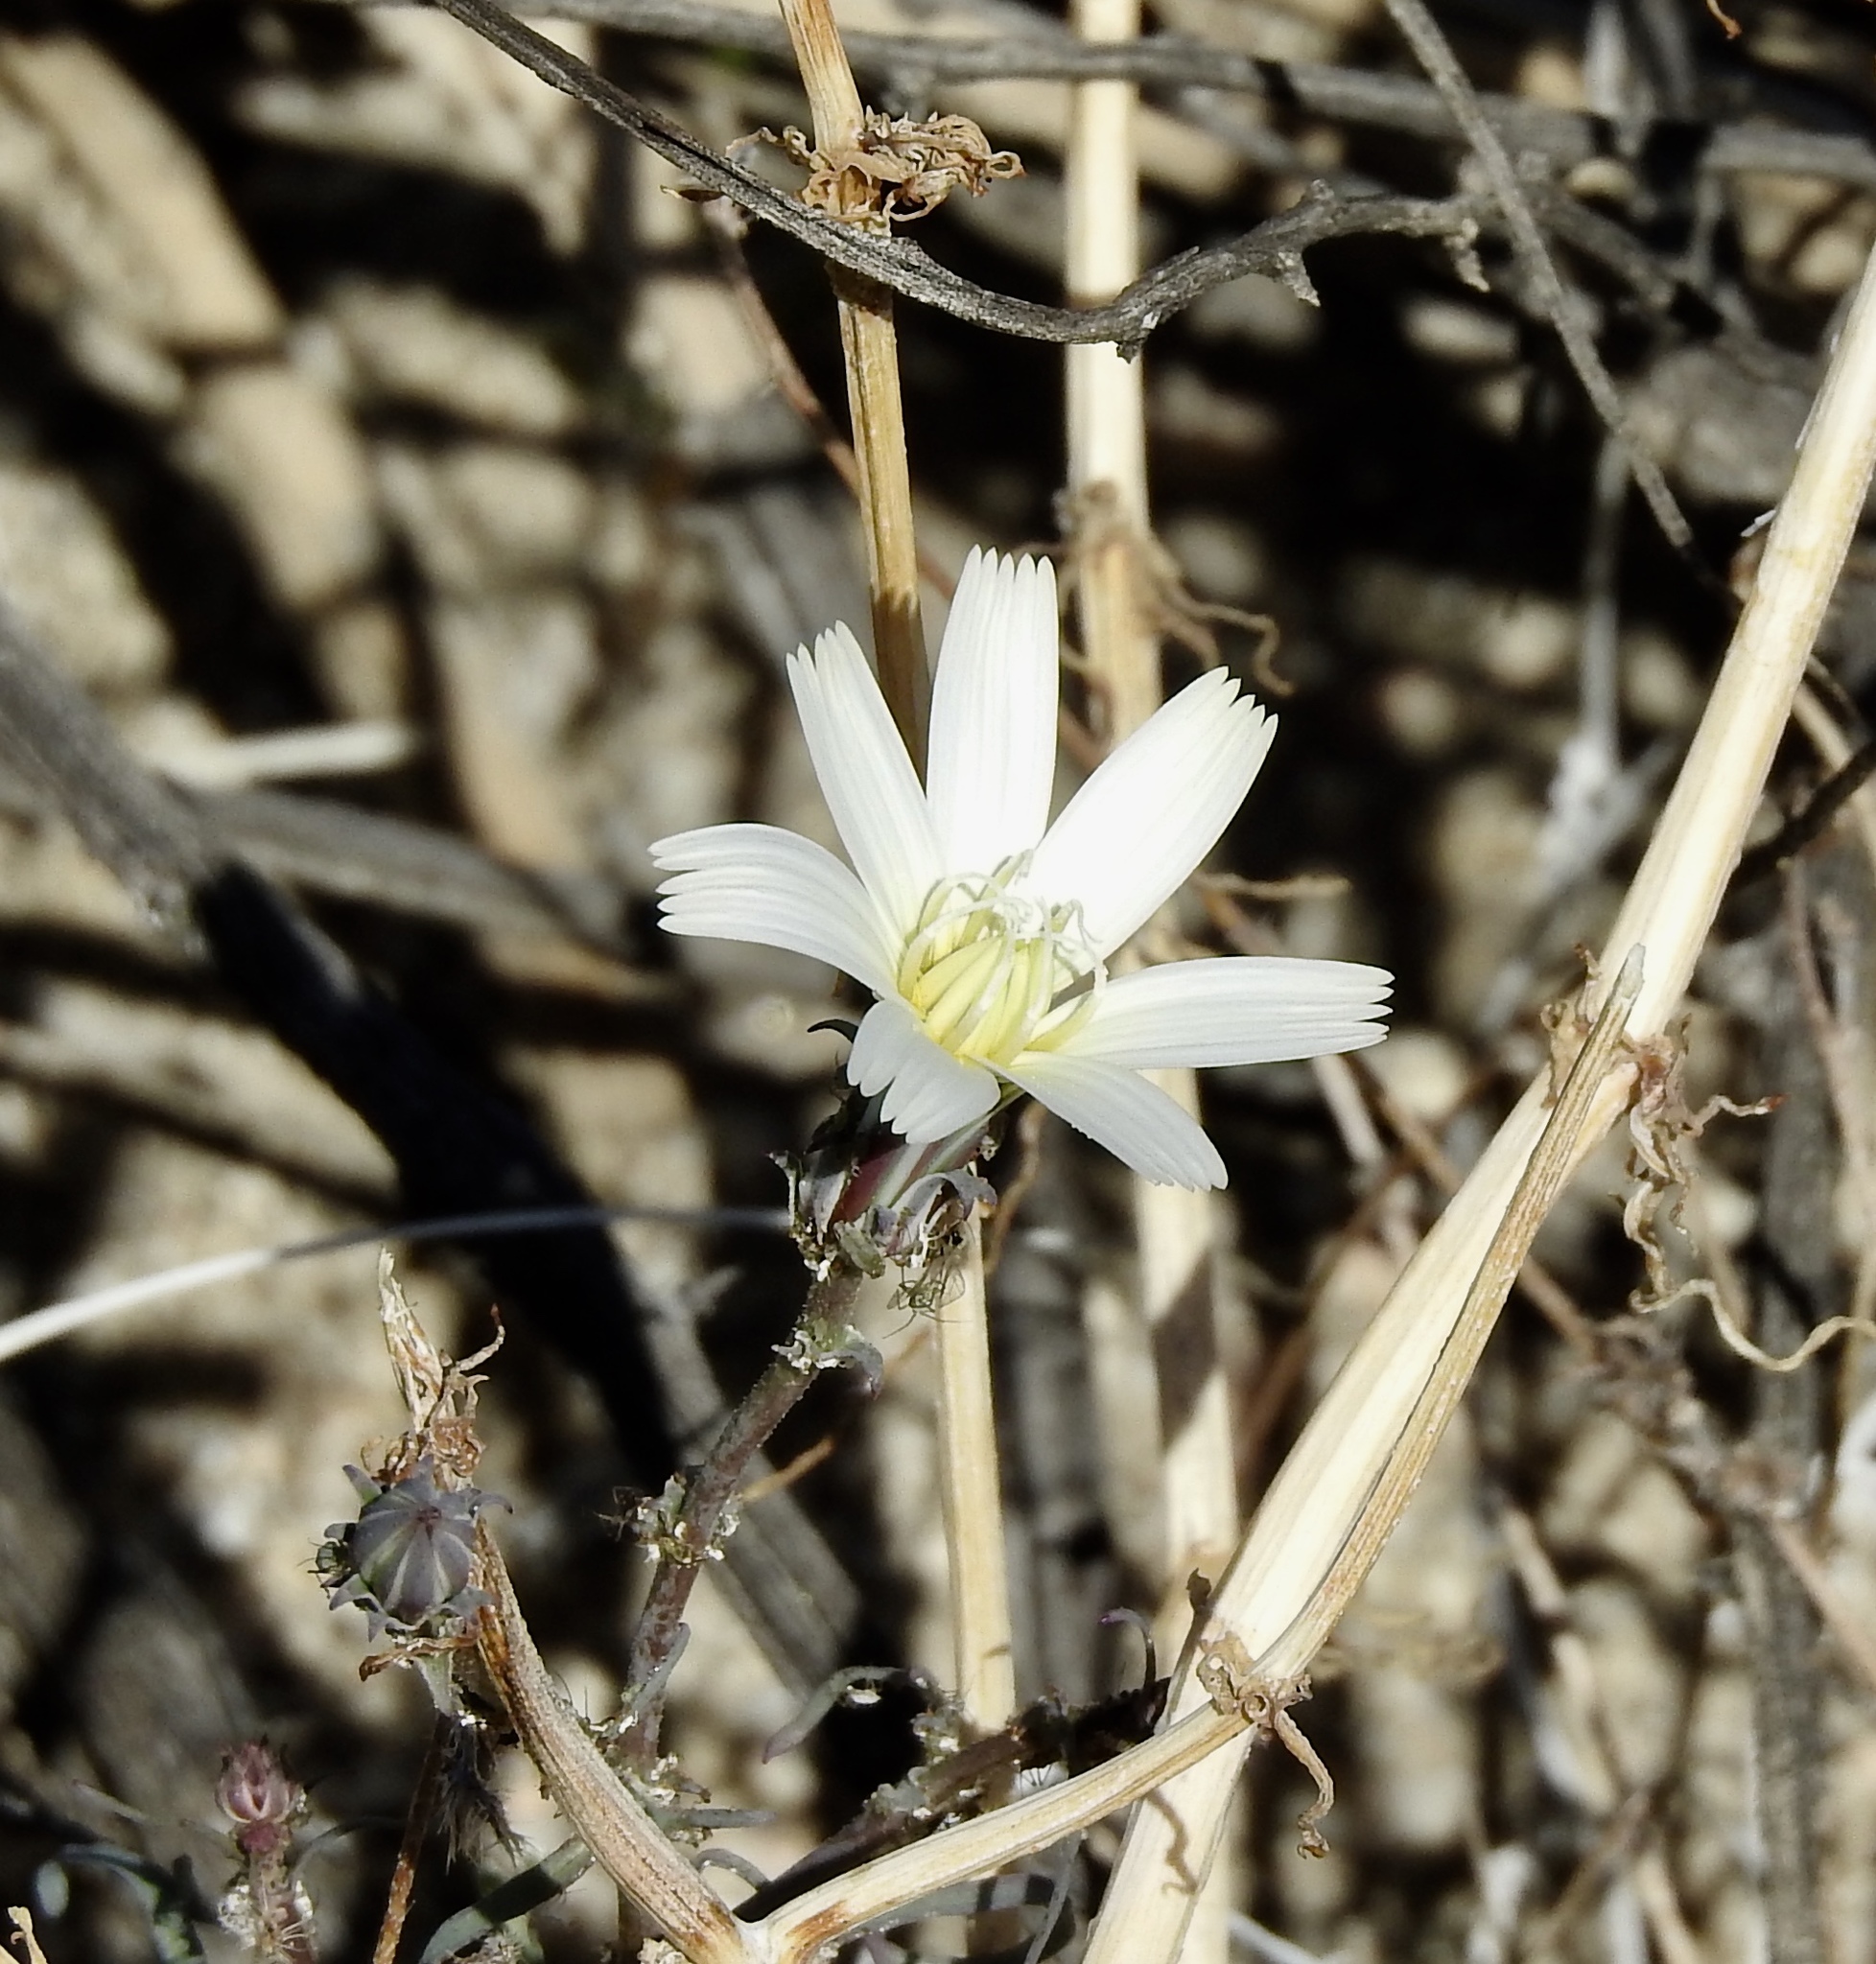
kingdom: Plantae
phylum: Tracheophyta
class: Magnoliopsida
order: Asterales
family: Asteraceae
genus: Rafinesquia
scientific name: Rafinesquia neomexicana
